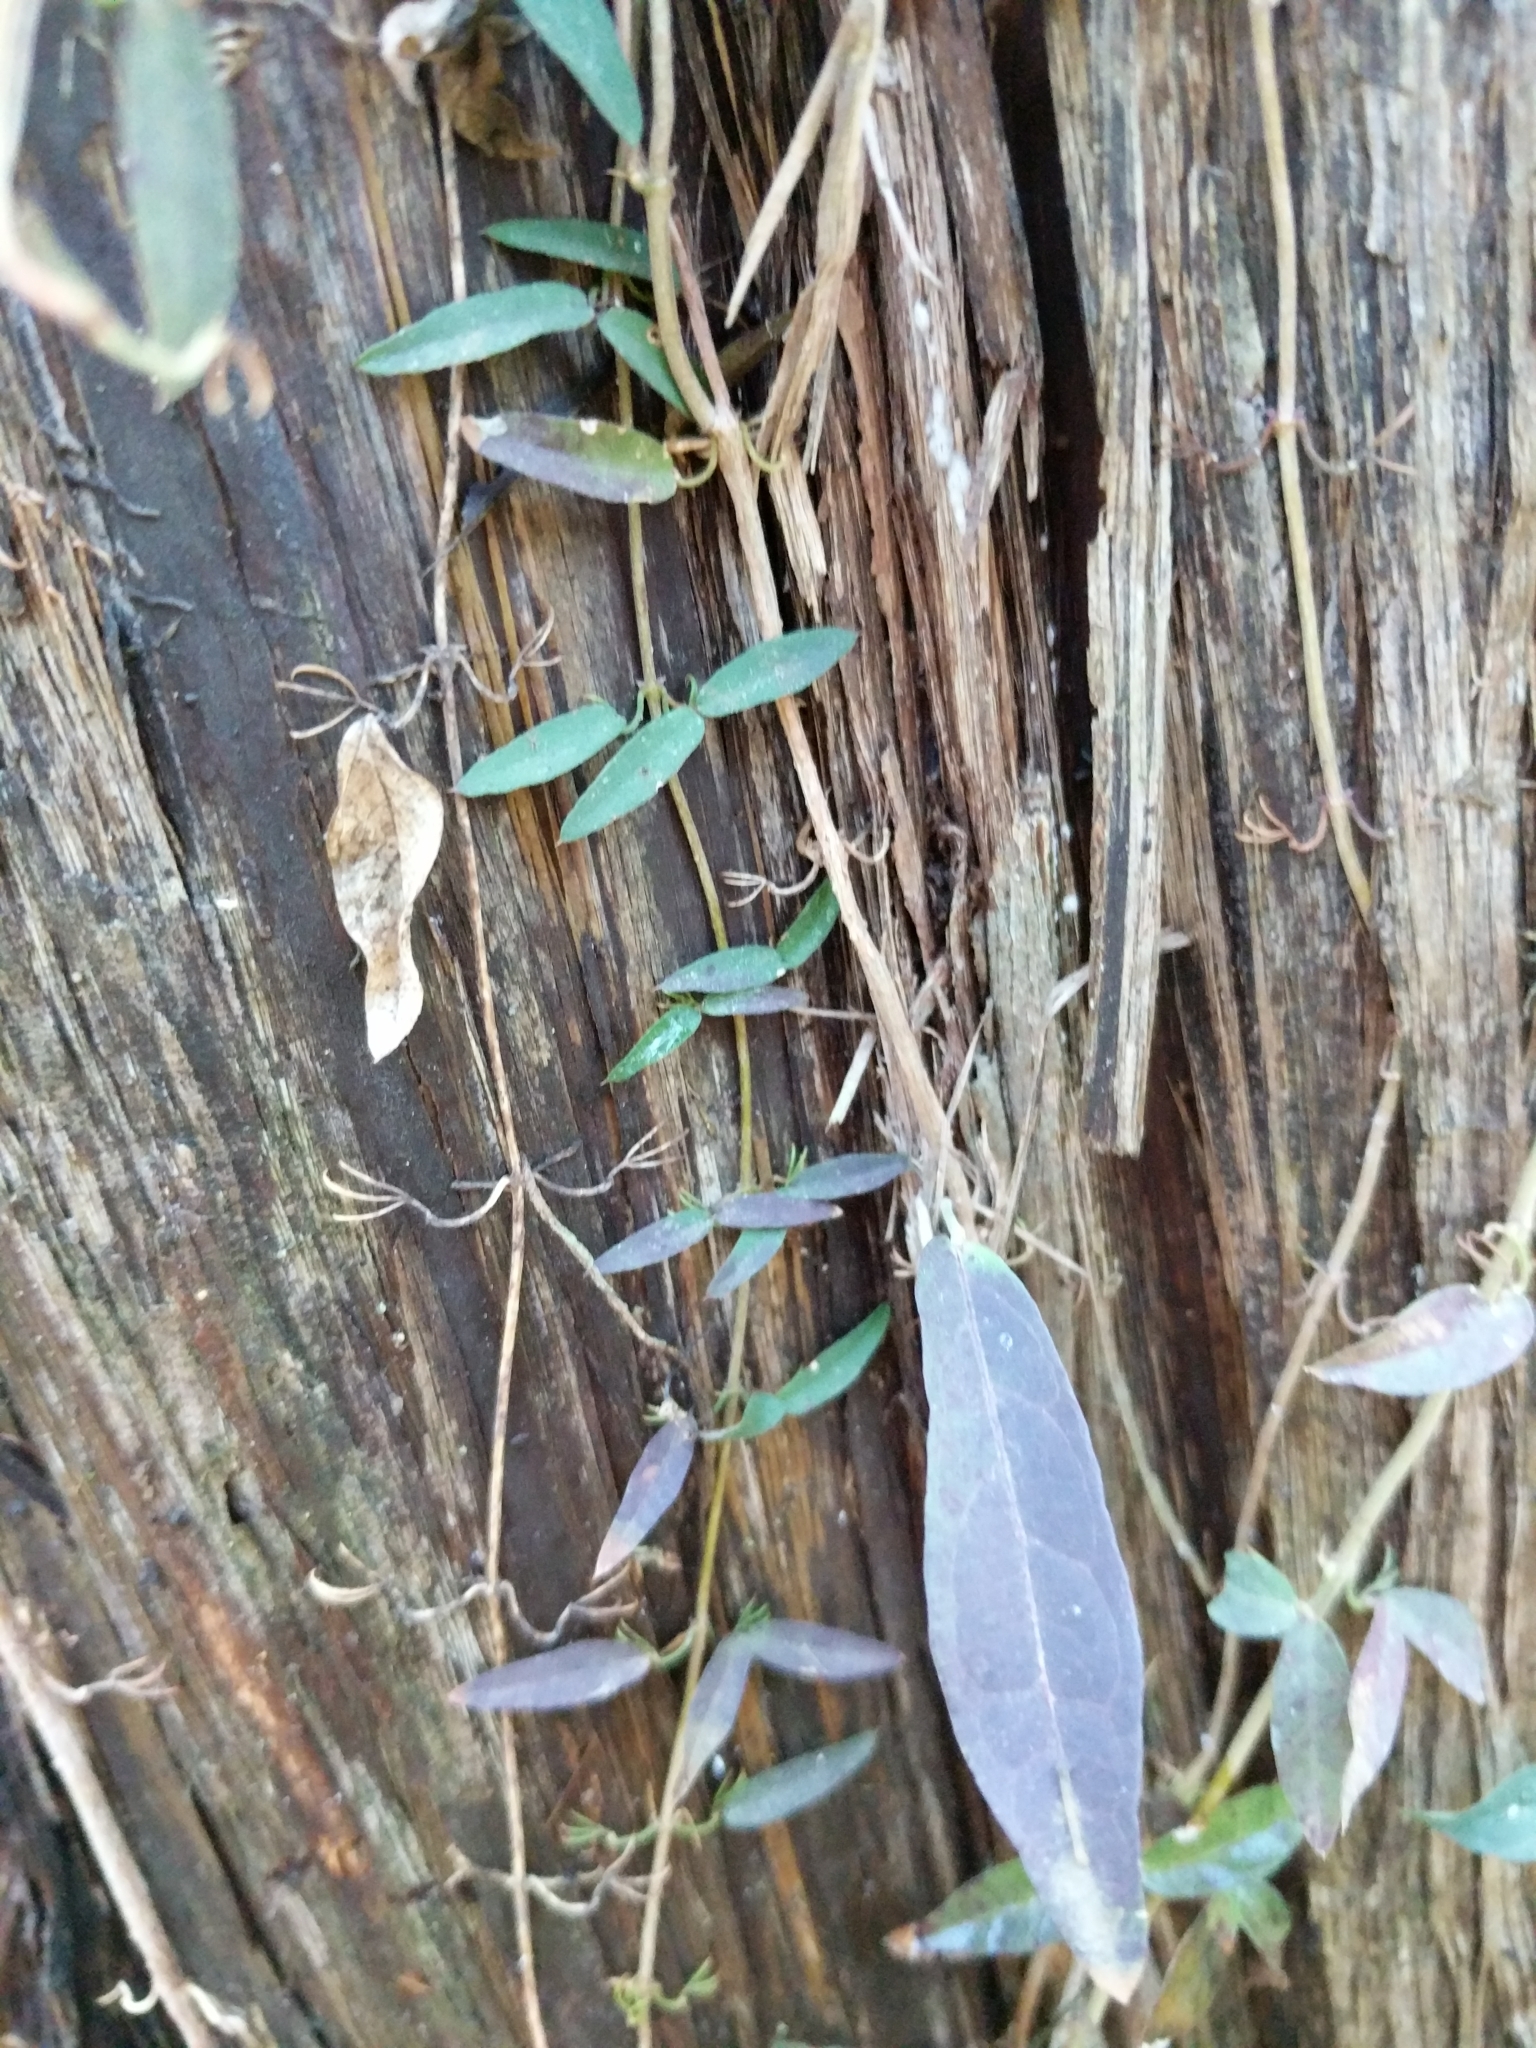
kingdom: Plantae
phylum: Tracheophyta
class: Magnoliopsida
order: Lamiales
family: Bignoniaceae
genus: Dolichandra
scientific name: Dolichandra unguis-cati
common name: Catclaw vine
